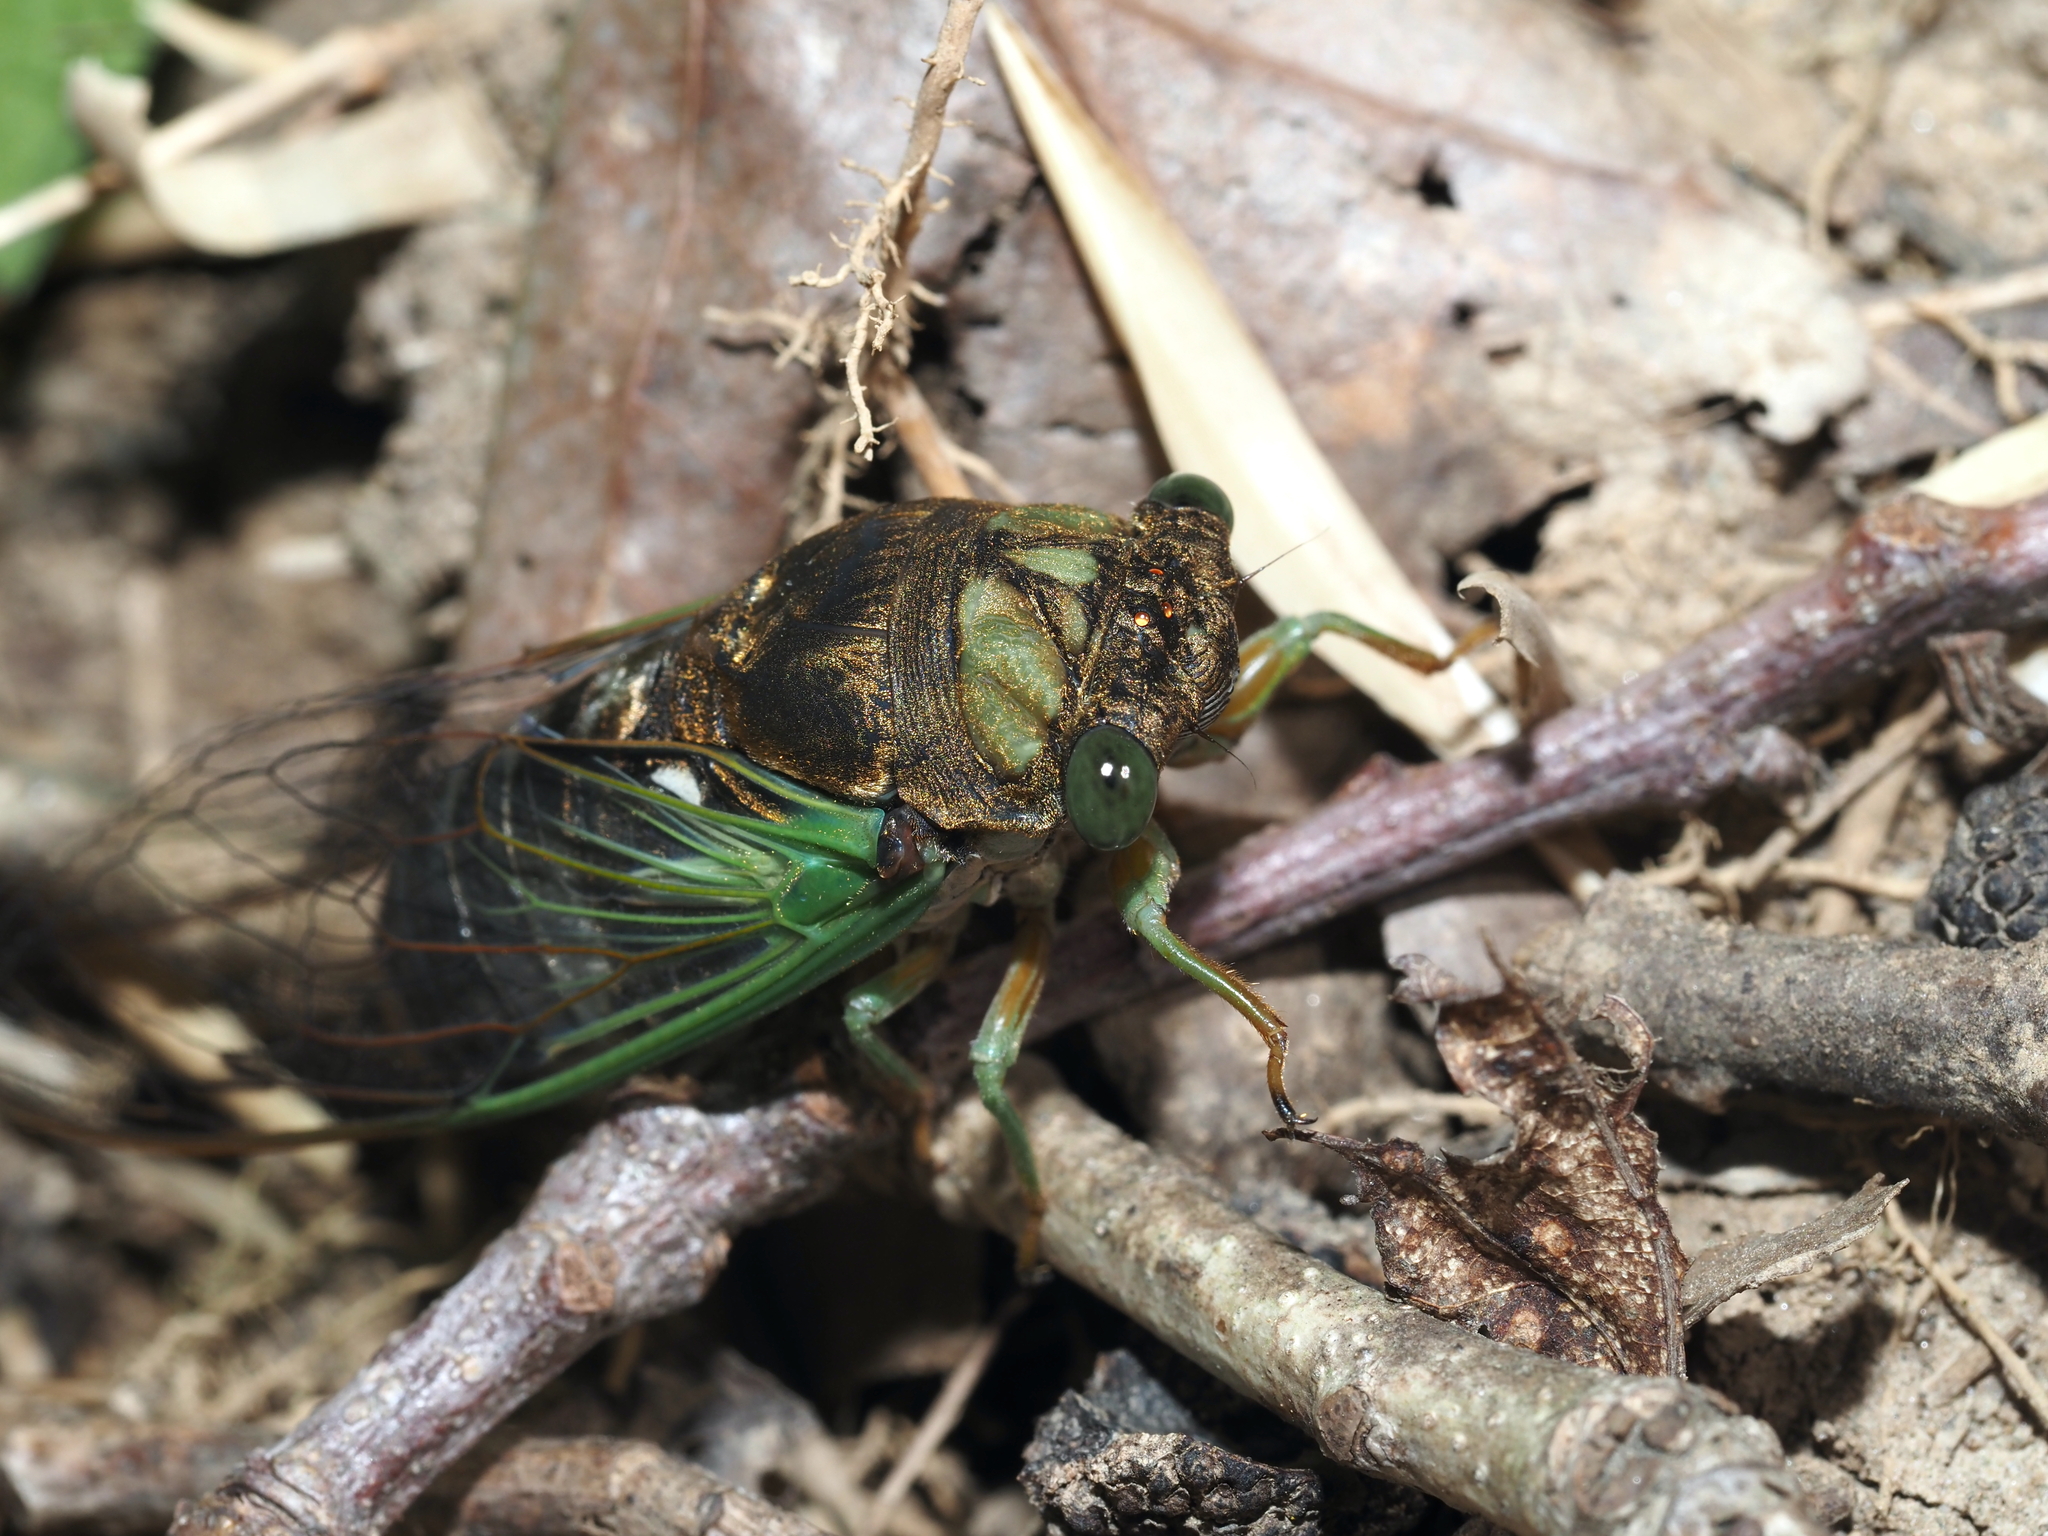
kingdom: Animalia
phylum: Arthropoda
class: Insecta
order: Hemiptera
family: Cicadidae
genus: Neotibicen
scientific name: Neotibicen tibicen
